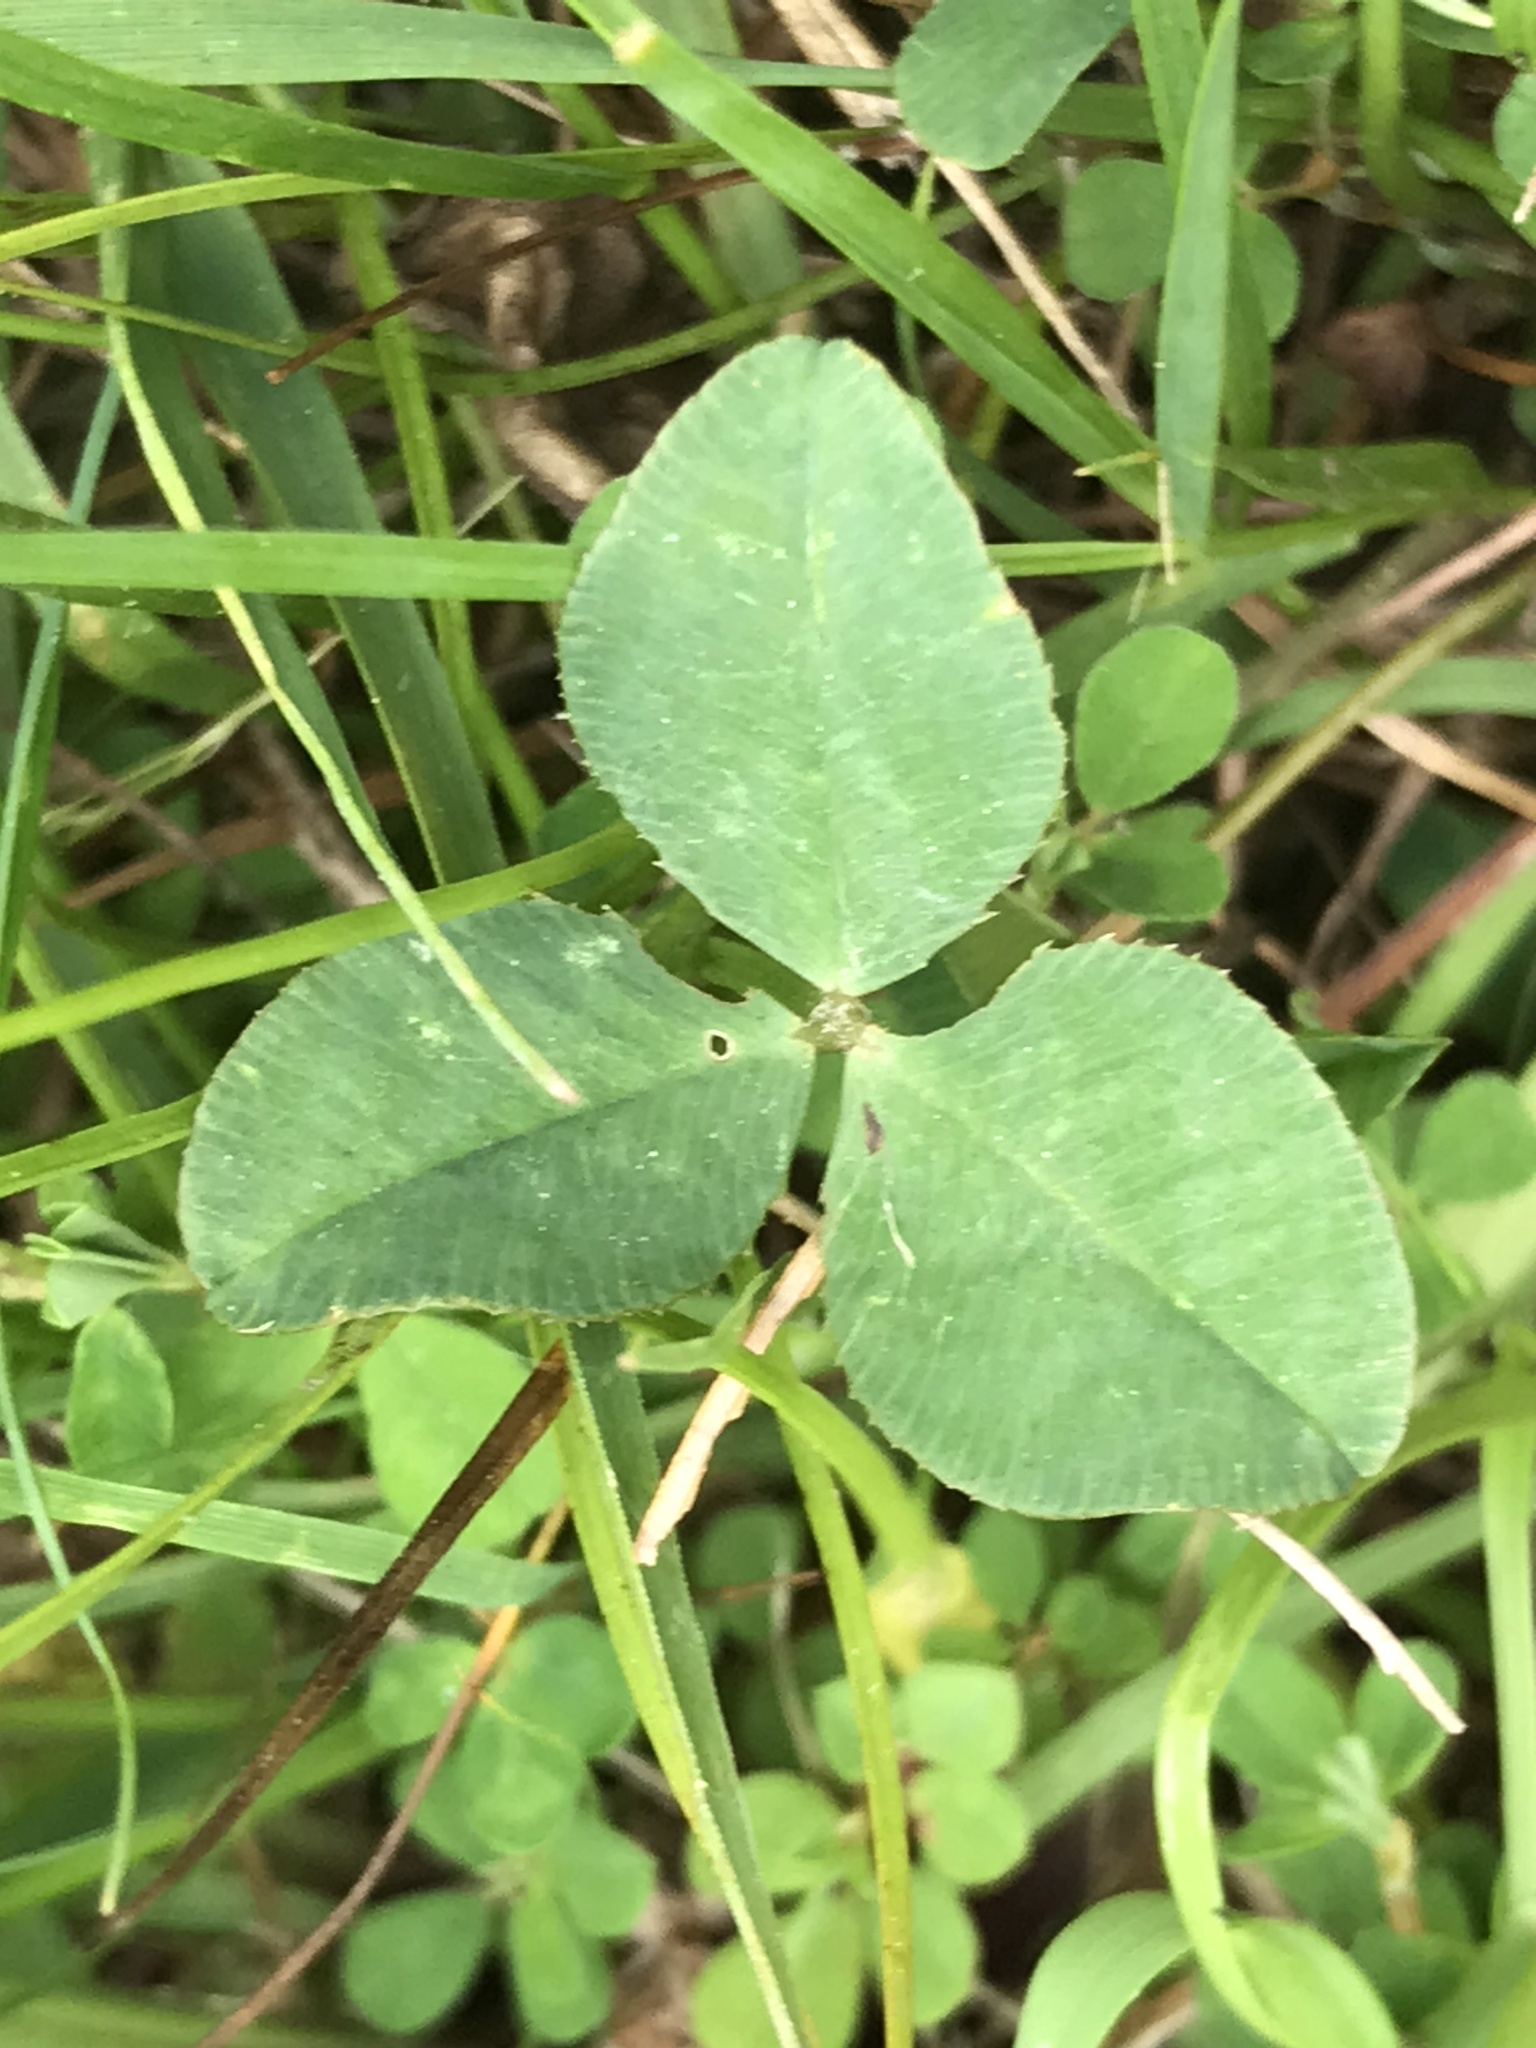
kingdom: Plantae
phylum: Tracheophyta
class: Magnoliopsida
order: Fabales
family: Fabaceae
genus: Trifolium
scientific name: Trifolium repens
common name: White clover
